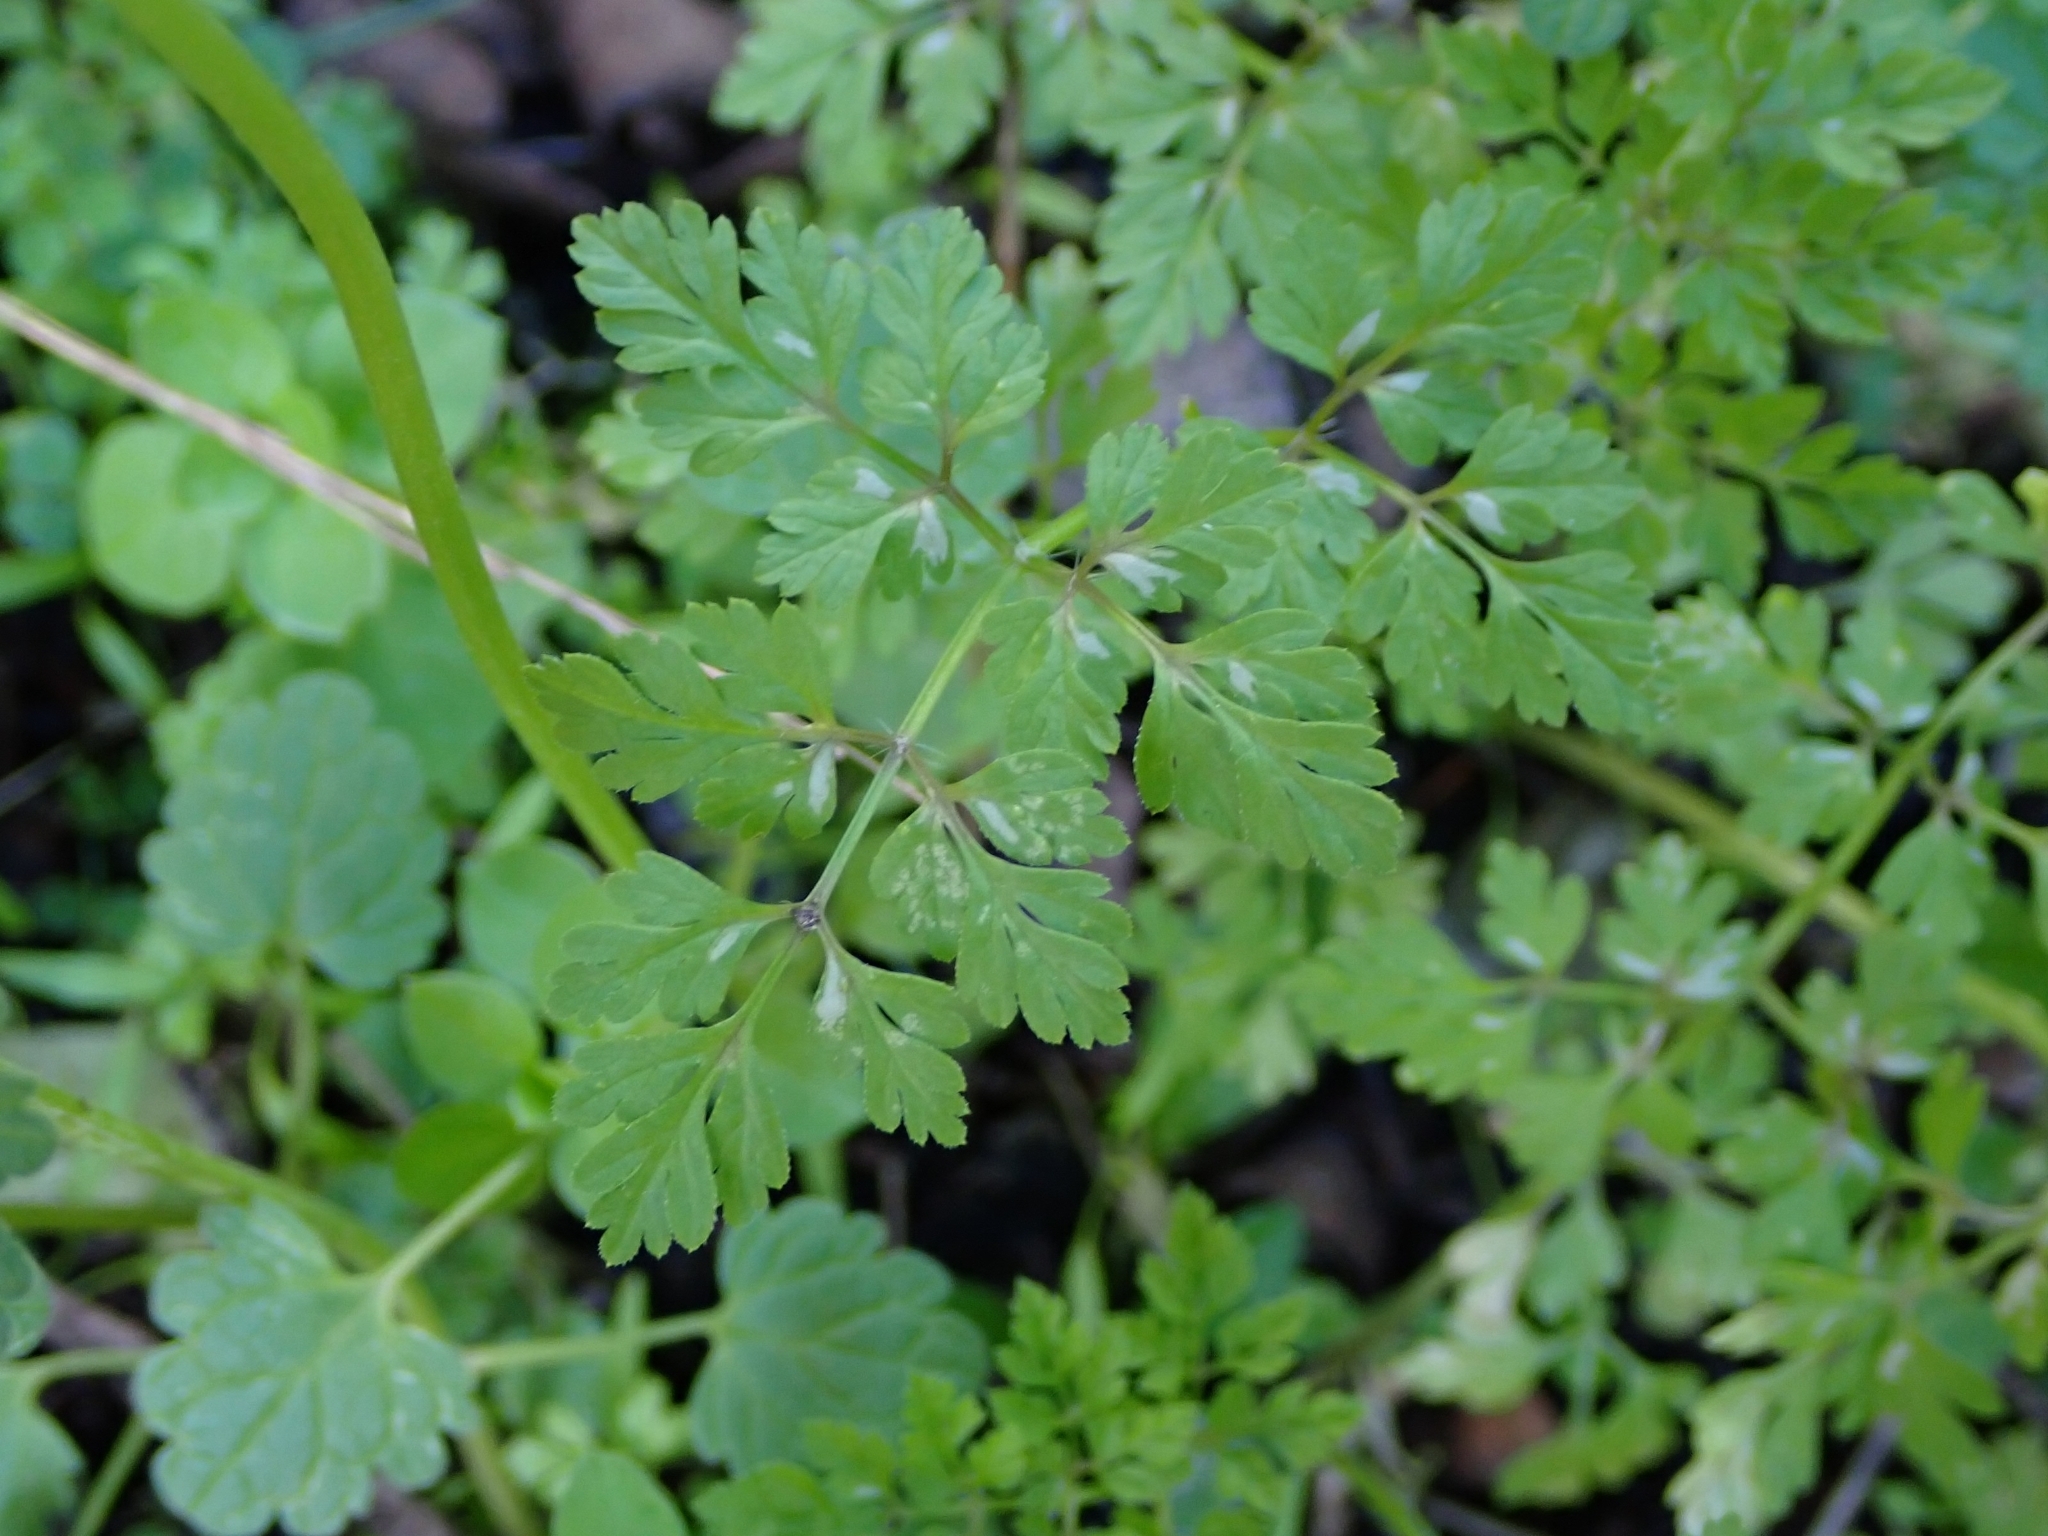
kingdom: Plantae
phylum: Tracheophyta
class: Magnoliopsida
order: Apiales
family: Apiaceae
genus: Anthriscus
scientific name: Anthriscus caucalis
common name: Bur chervil
